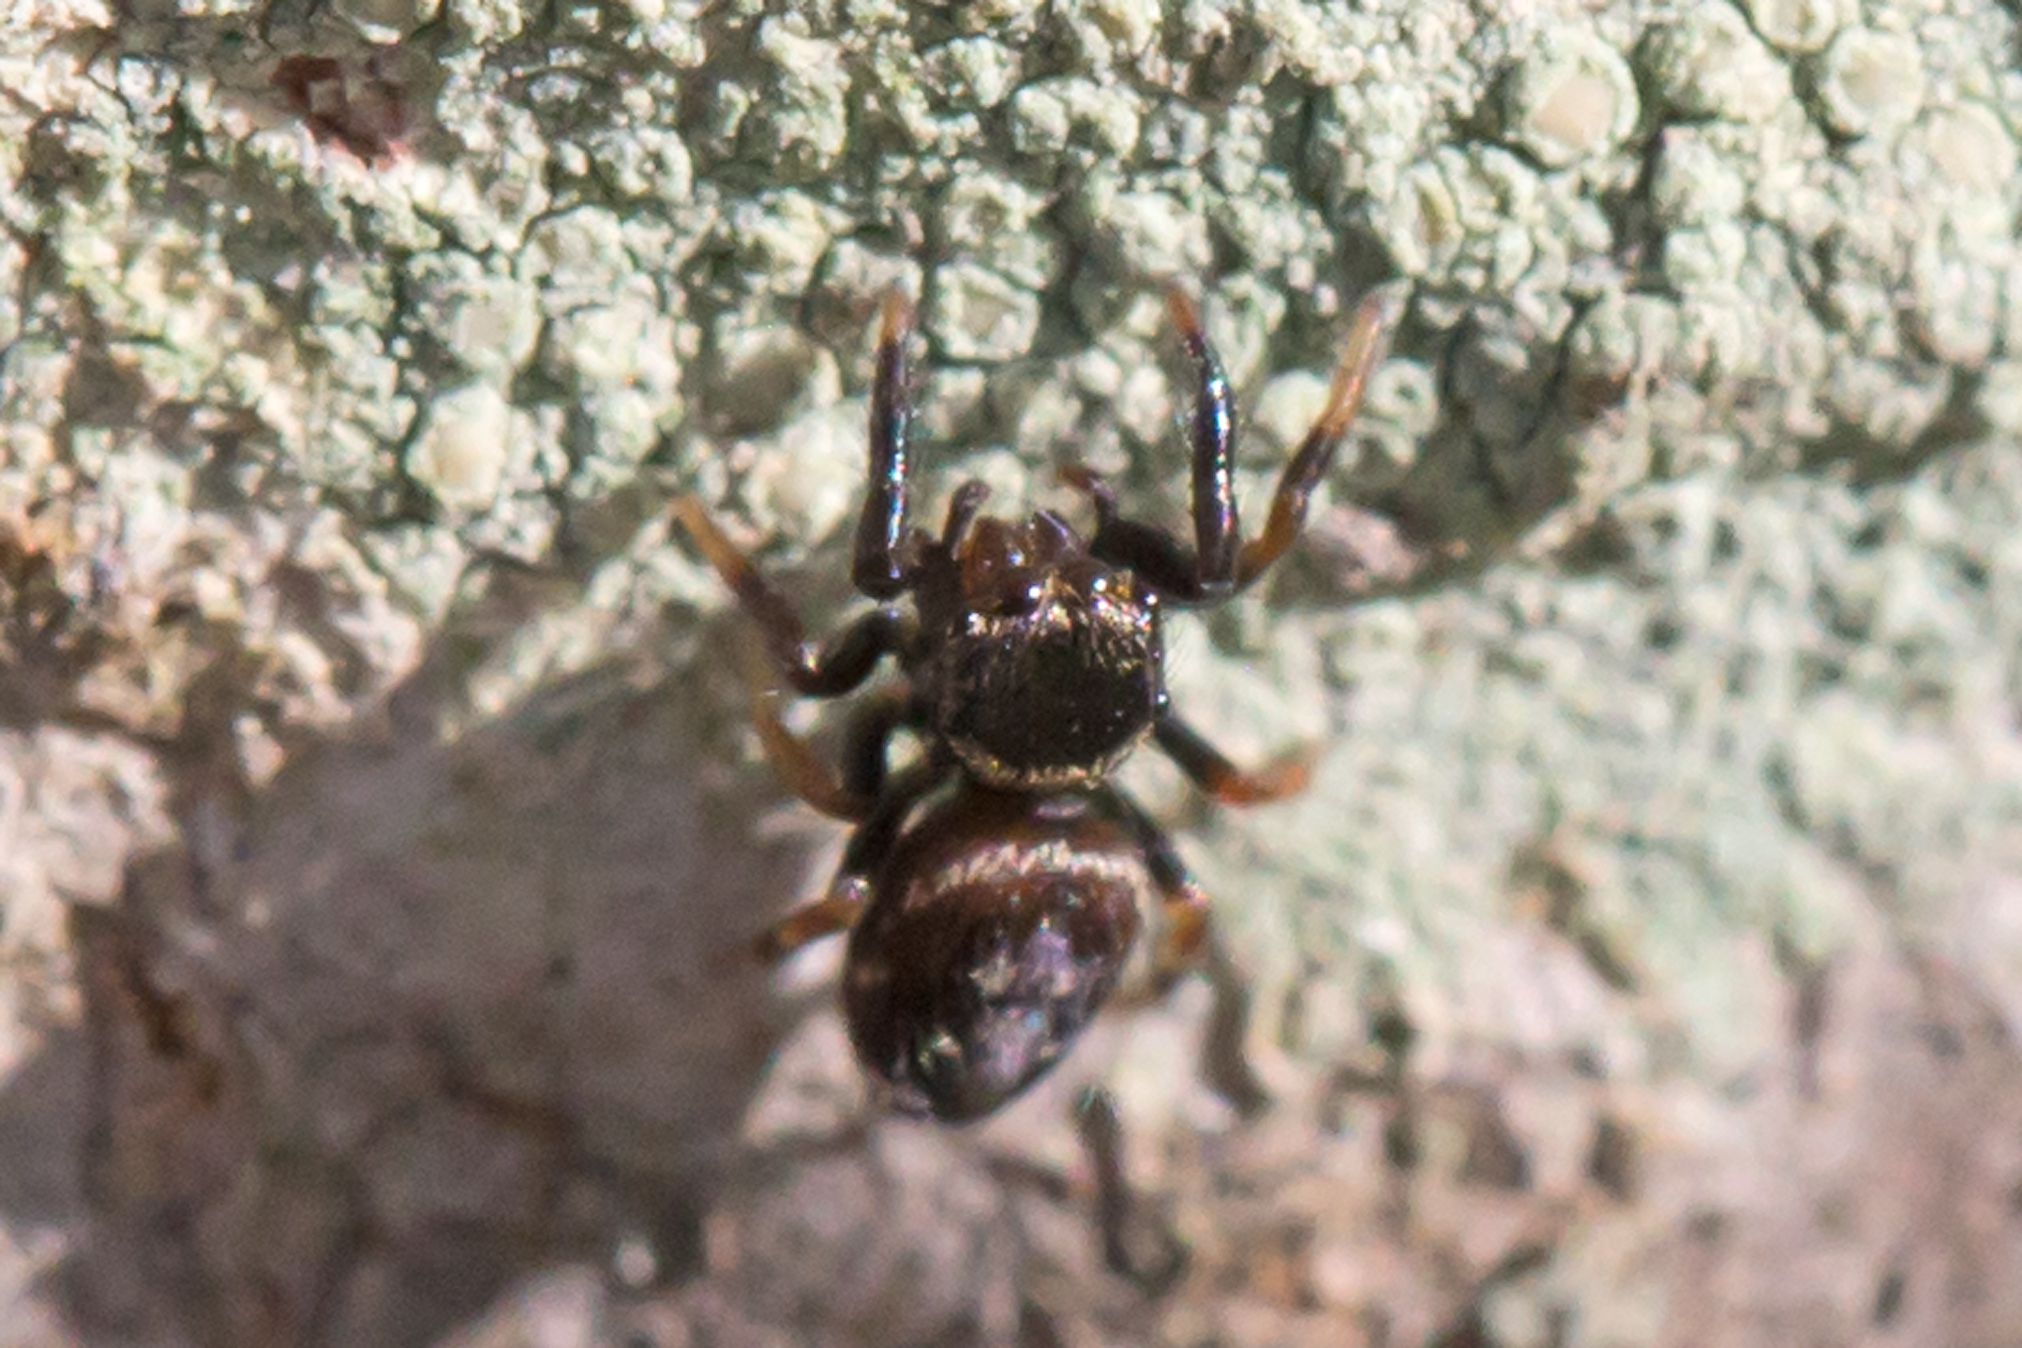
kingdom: Animalia
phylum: Arthropoda
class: Arachnida
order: Araneae
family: Salticidae
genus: Paraphidippus
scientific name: Paraphidippus aurantius
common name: Jumping spiders
